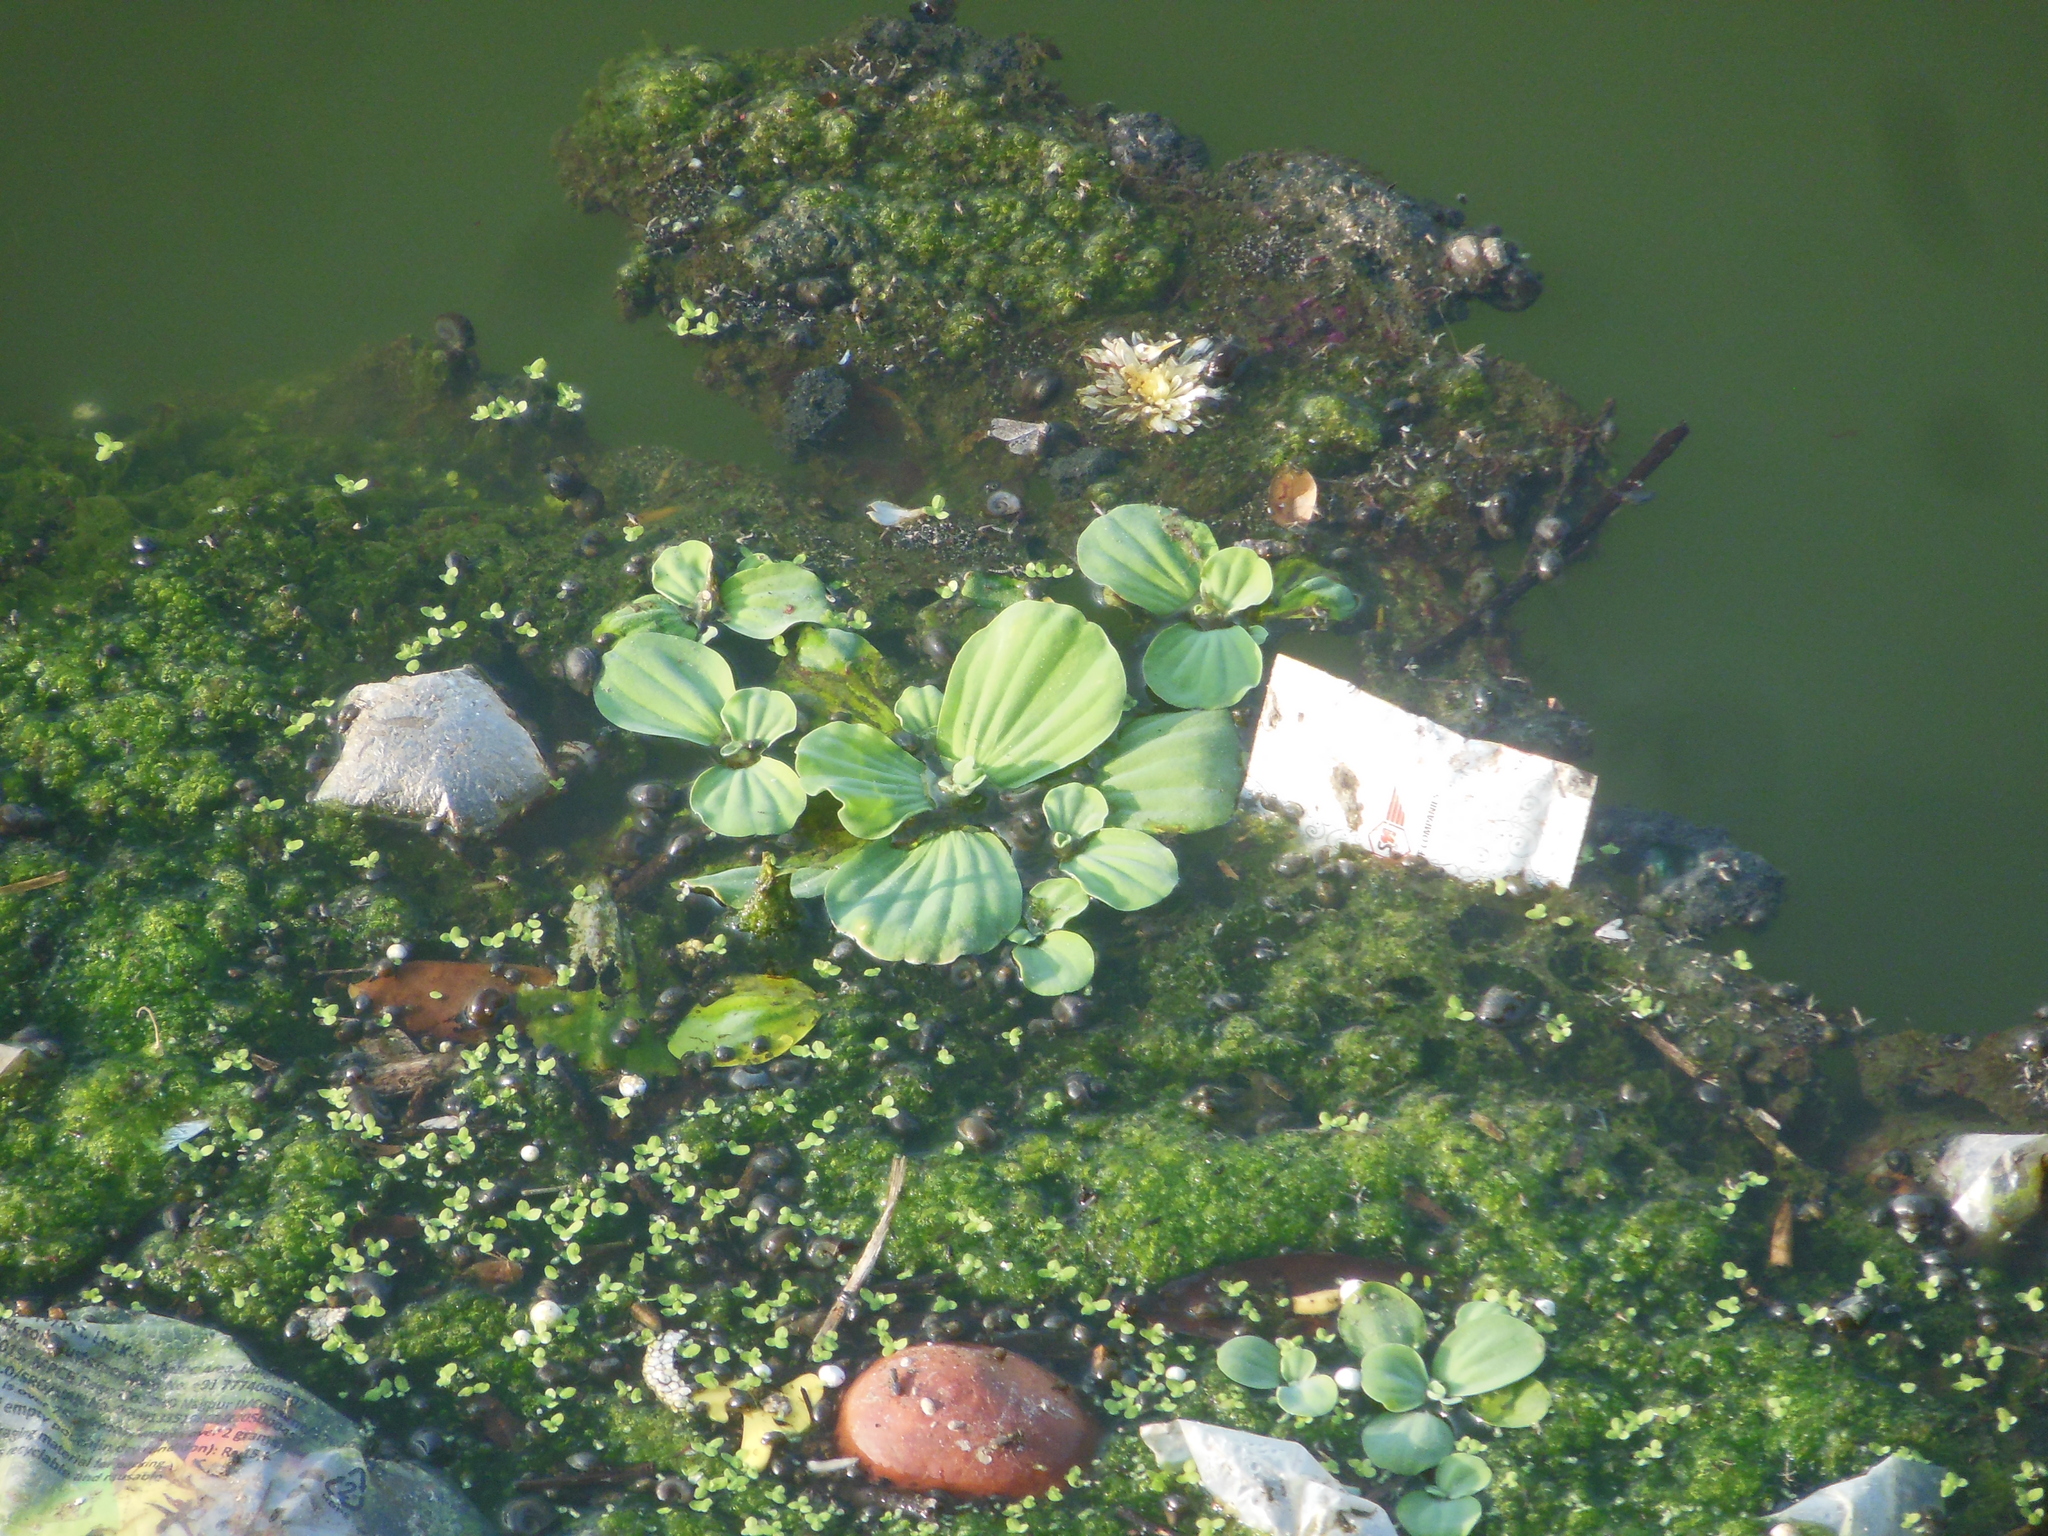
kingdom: Plantae
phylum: Tracheophyta
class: Liliopsida
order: Alismatales
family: Araceae
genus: Pistia
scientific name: Pistia stratiotes
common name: Water lettuce
